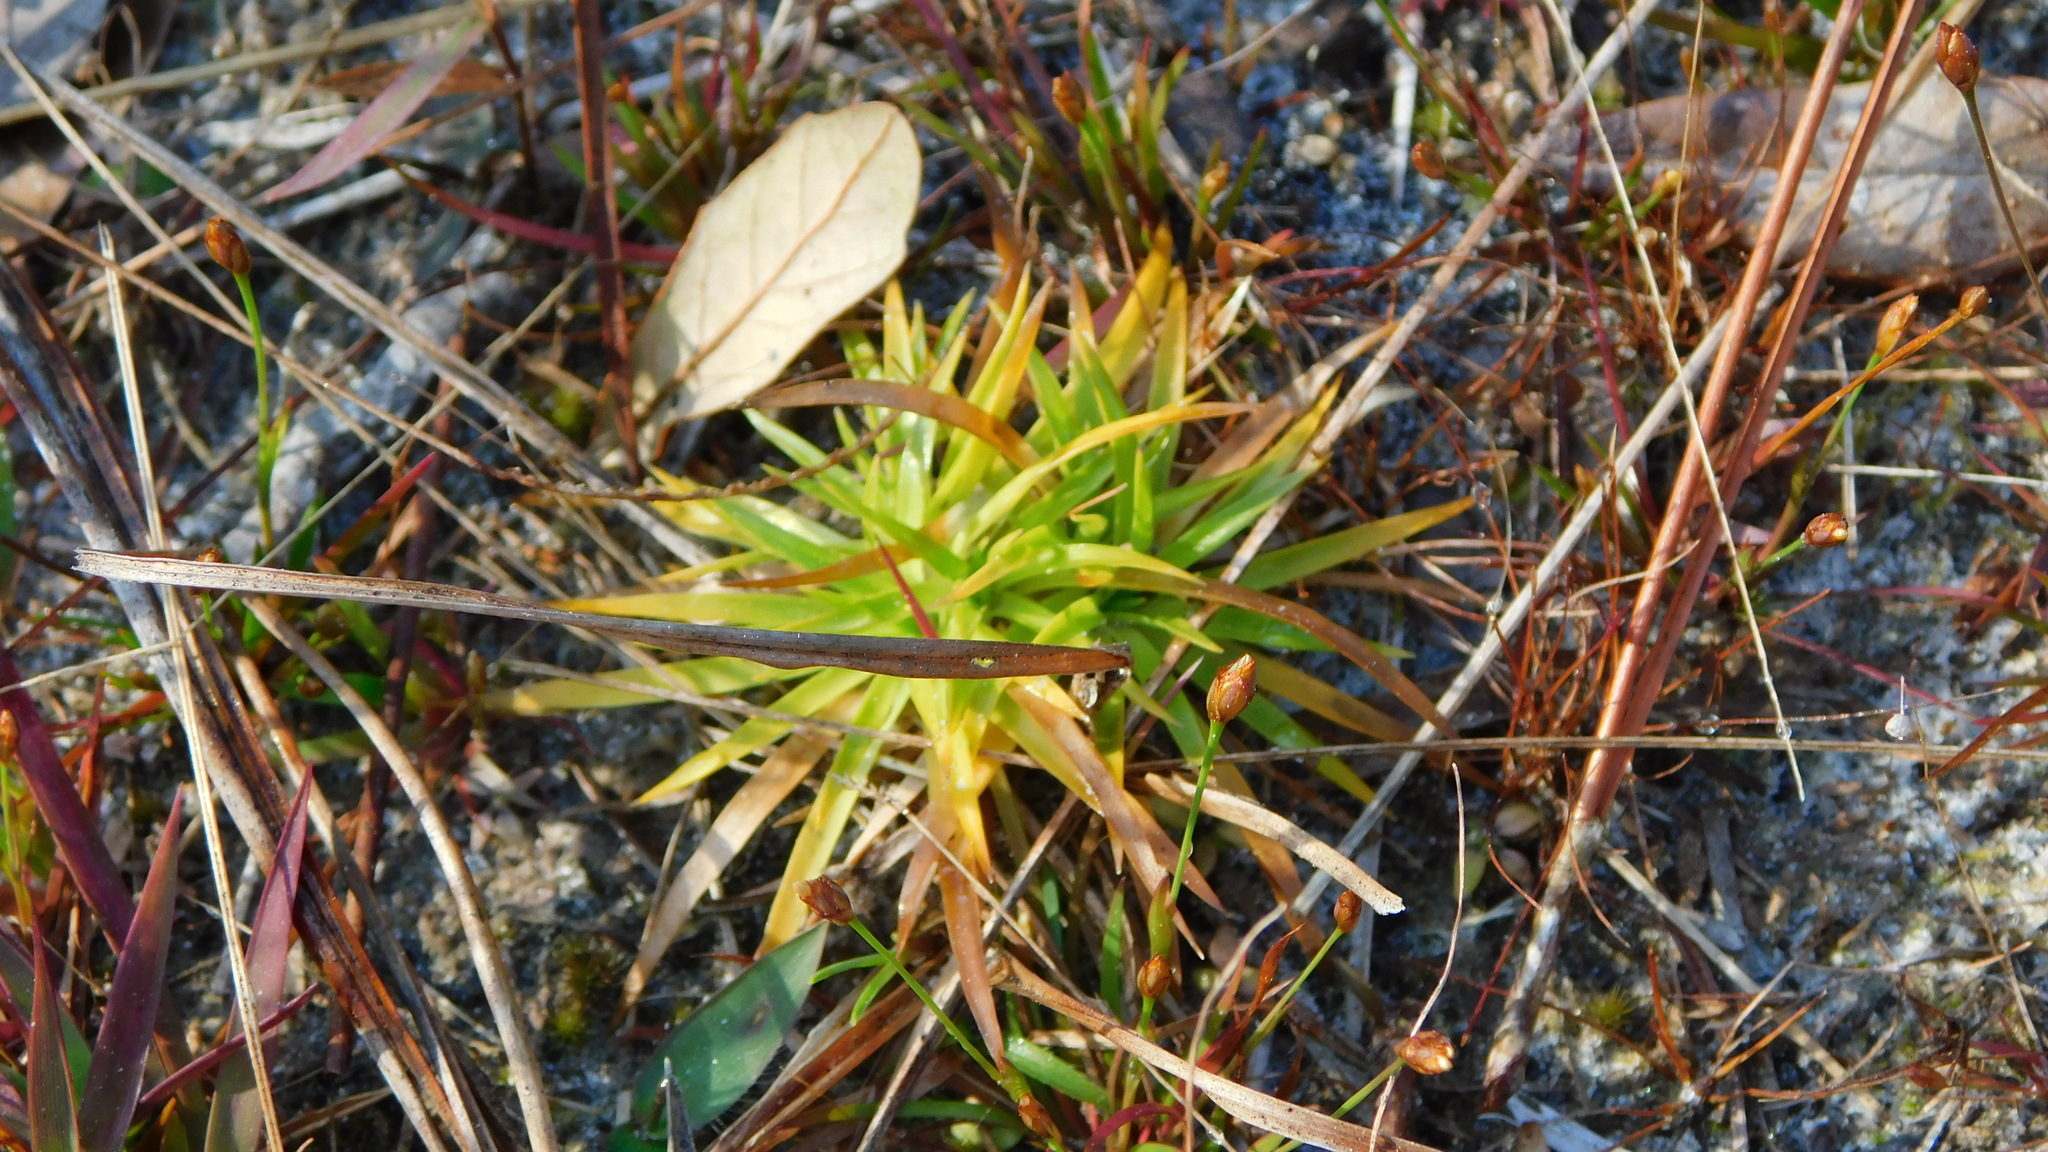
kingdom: Plantae
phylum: Tracheophyta
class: Liliopsida
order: Poales
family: Eriocaulaceae
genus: Paepalanthus
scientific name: Paepalanthus anceps
